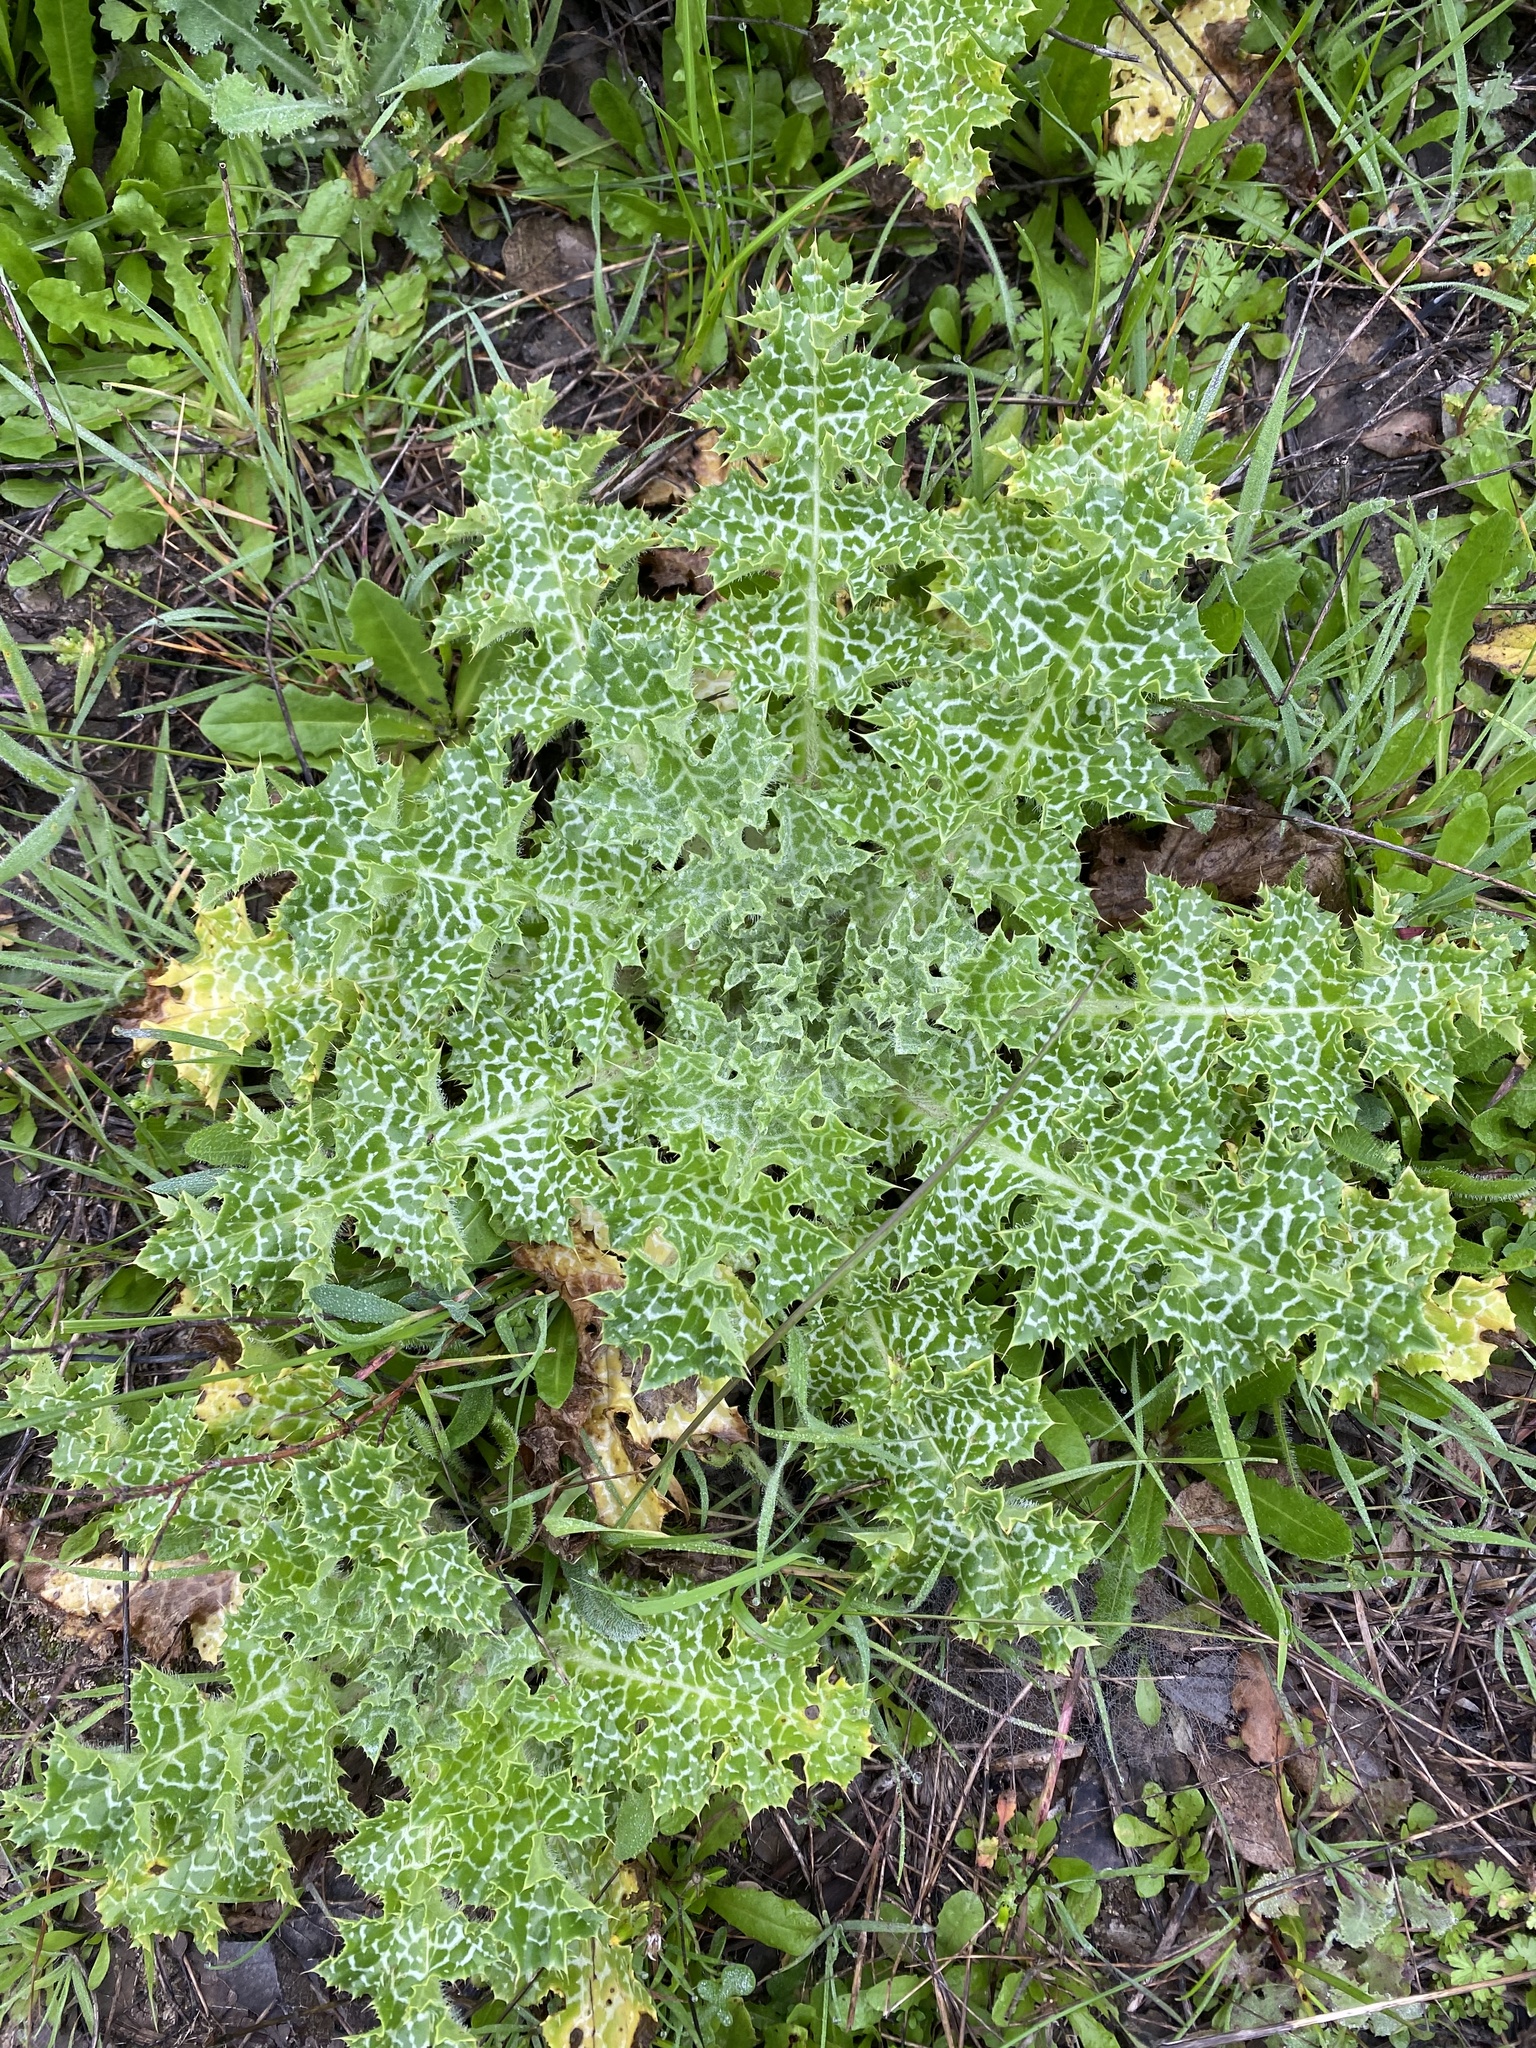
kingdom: Plantae
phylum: Tracheophyta
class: Magnoliopsida
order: Asterales
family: Asteraceae
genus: Silybum
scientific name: Silybum marianum
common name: Milk thistle
